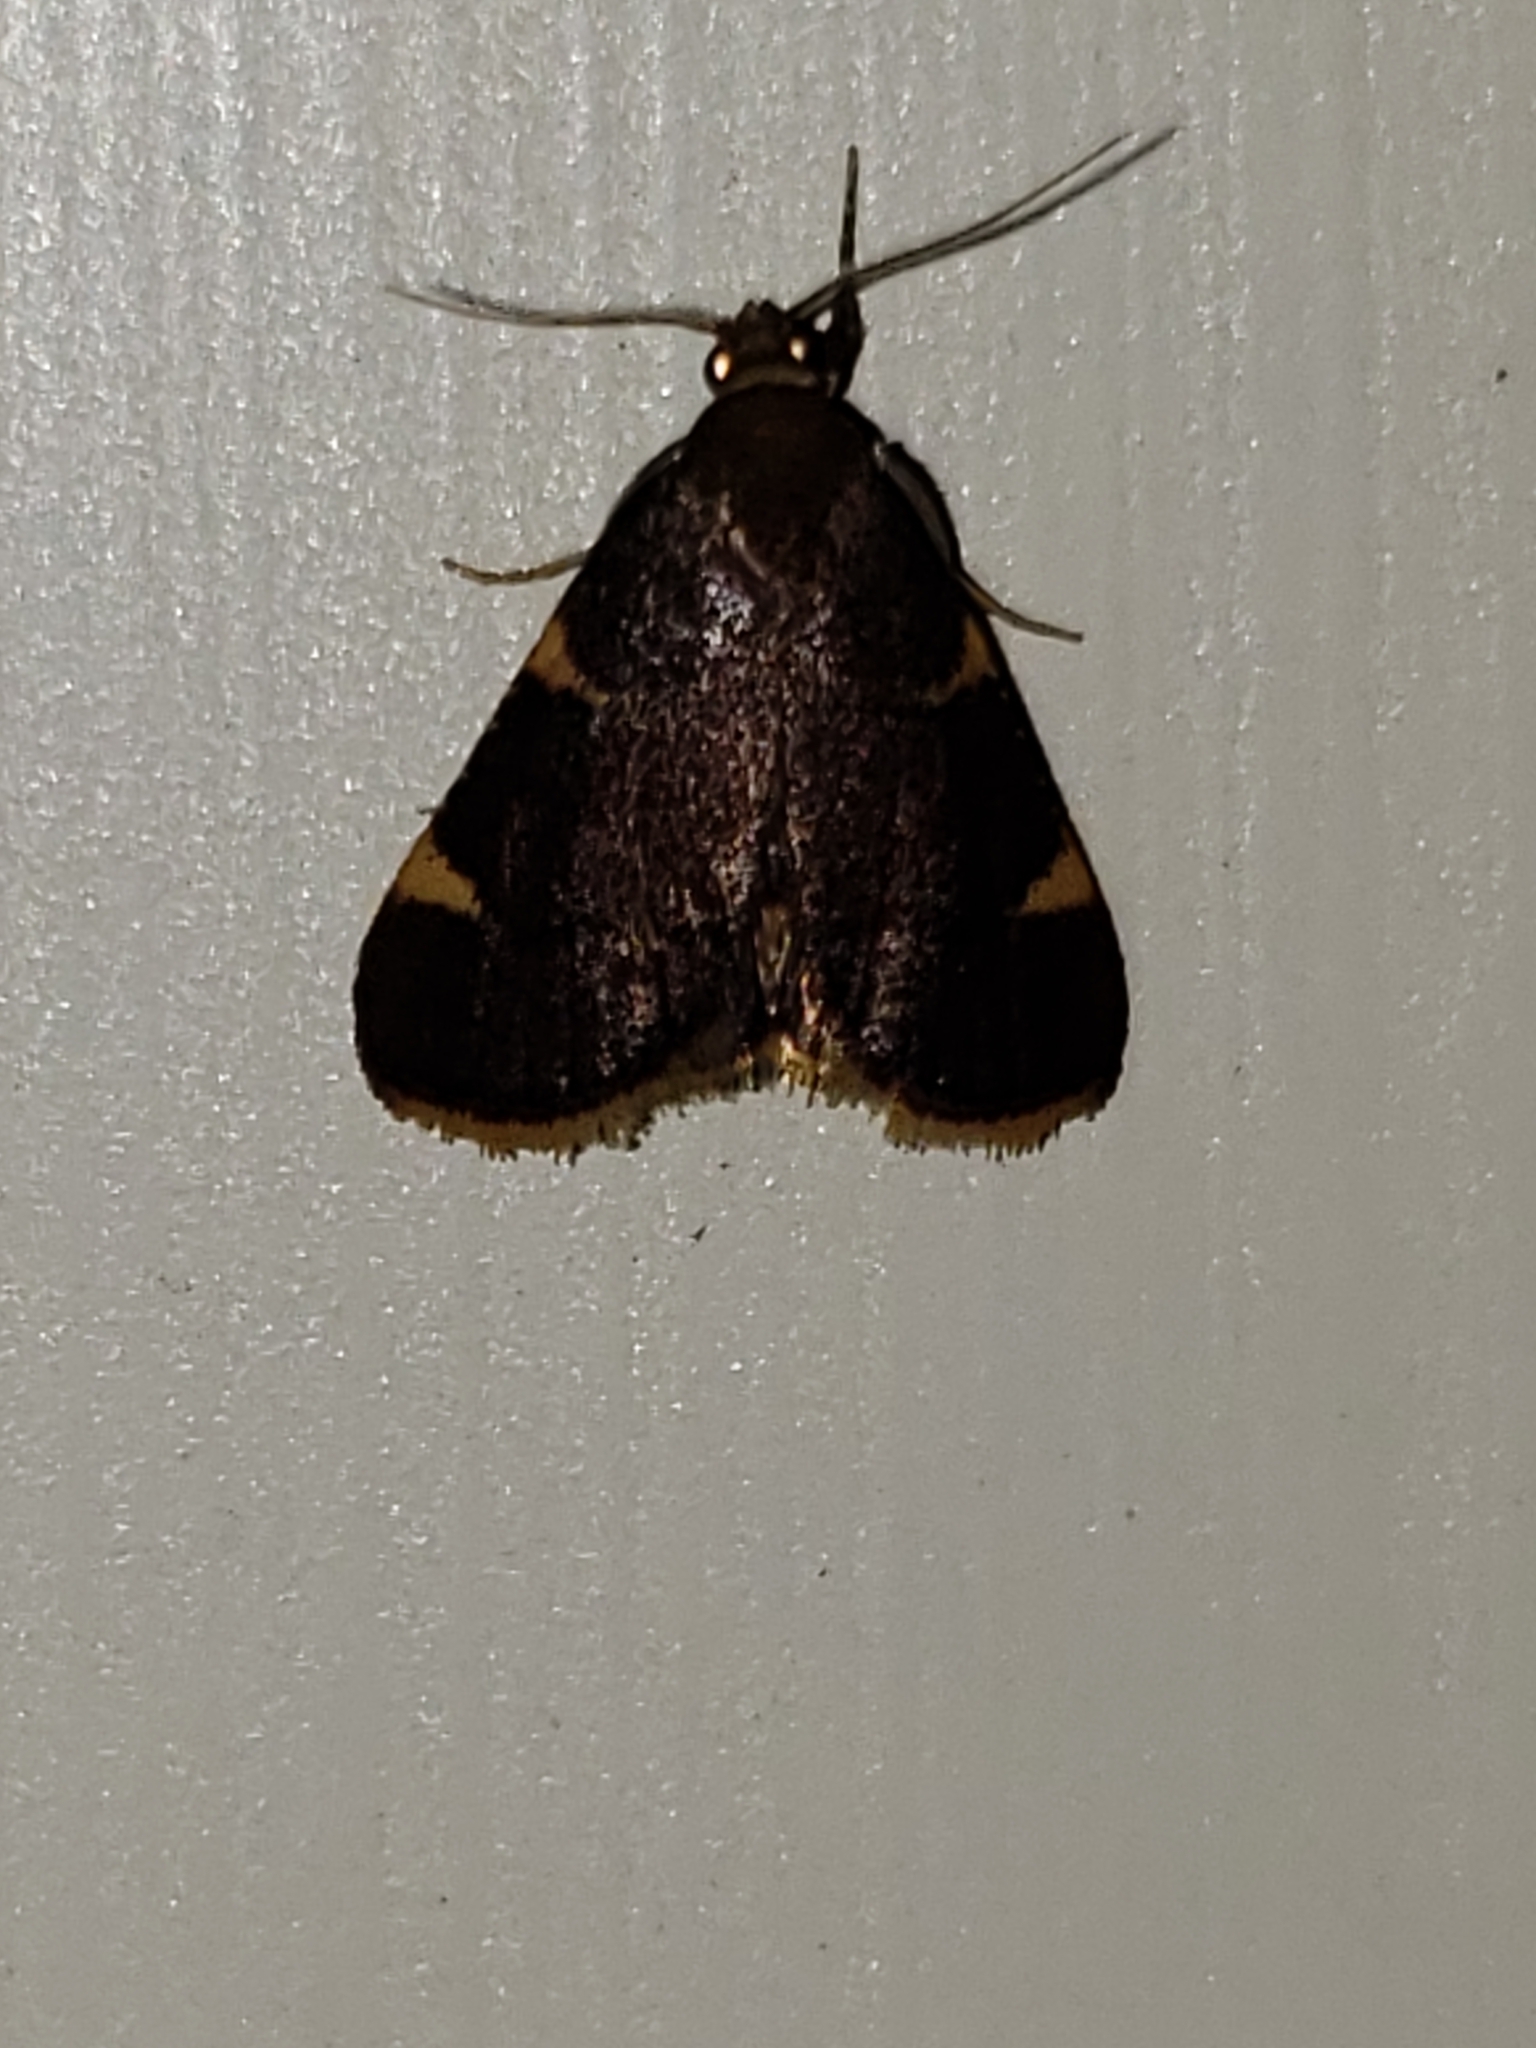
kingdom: Animalia
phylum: Arthropoda
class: Insecta
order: Lepidoptera
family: Pyralidae
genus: Hypsopygia
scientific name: Hypsopygia olinalis
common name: Yellow-fringed dolichomia moth
